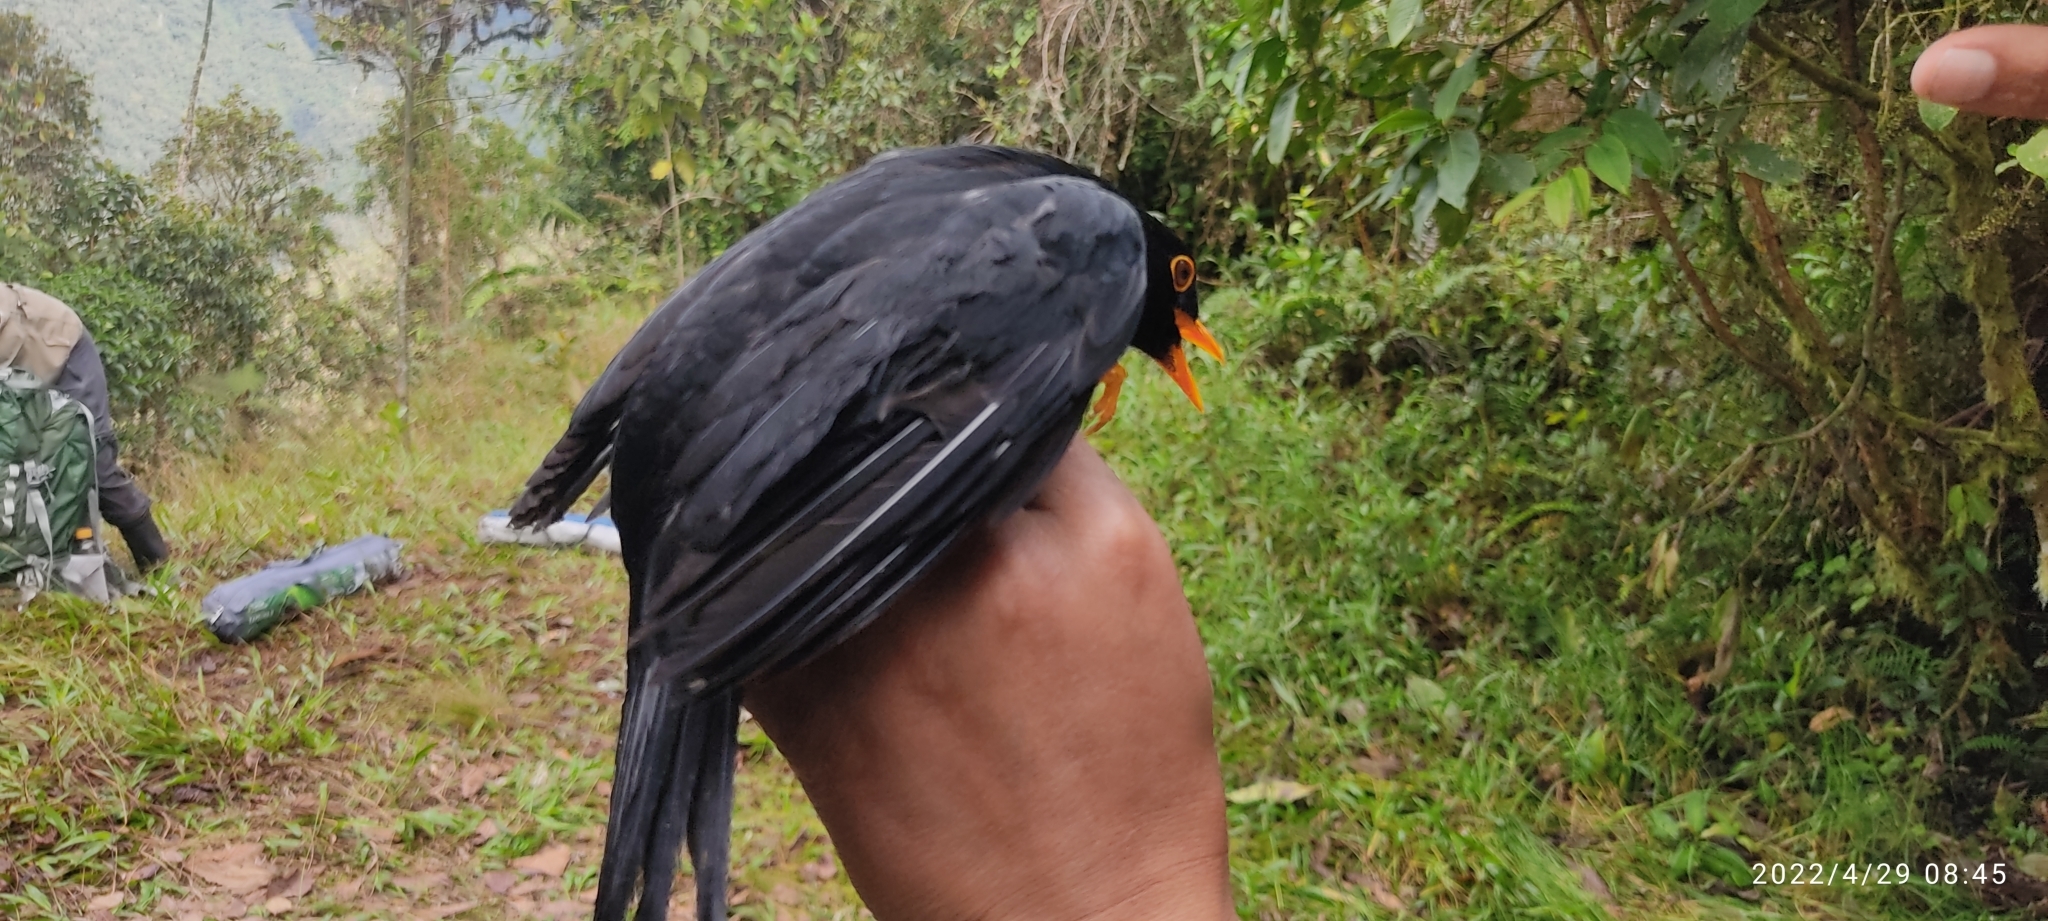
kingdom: Animalia
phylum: Chordata
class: Aves
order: Passeriformes
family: Turdidae
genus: Turdus
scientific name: Turdus serranus
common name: Glossy-black thrush
